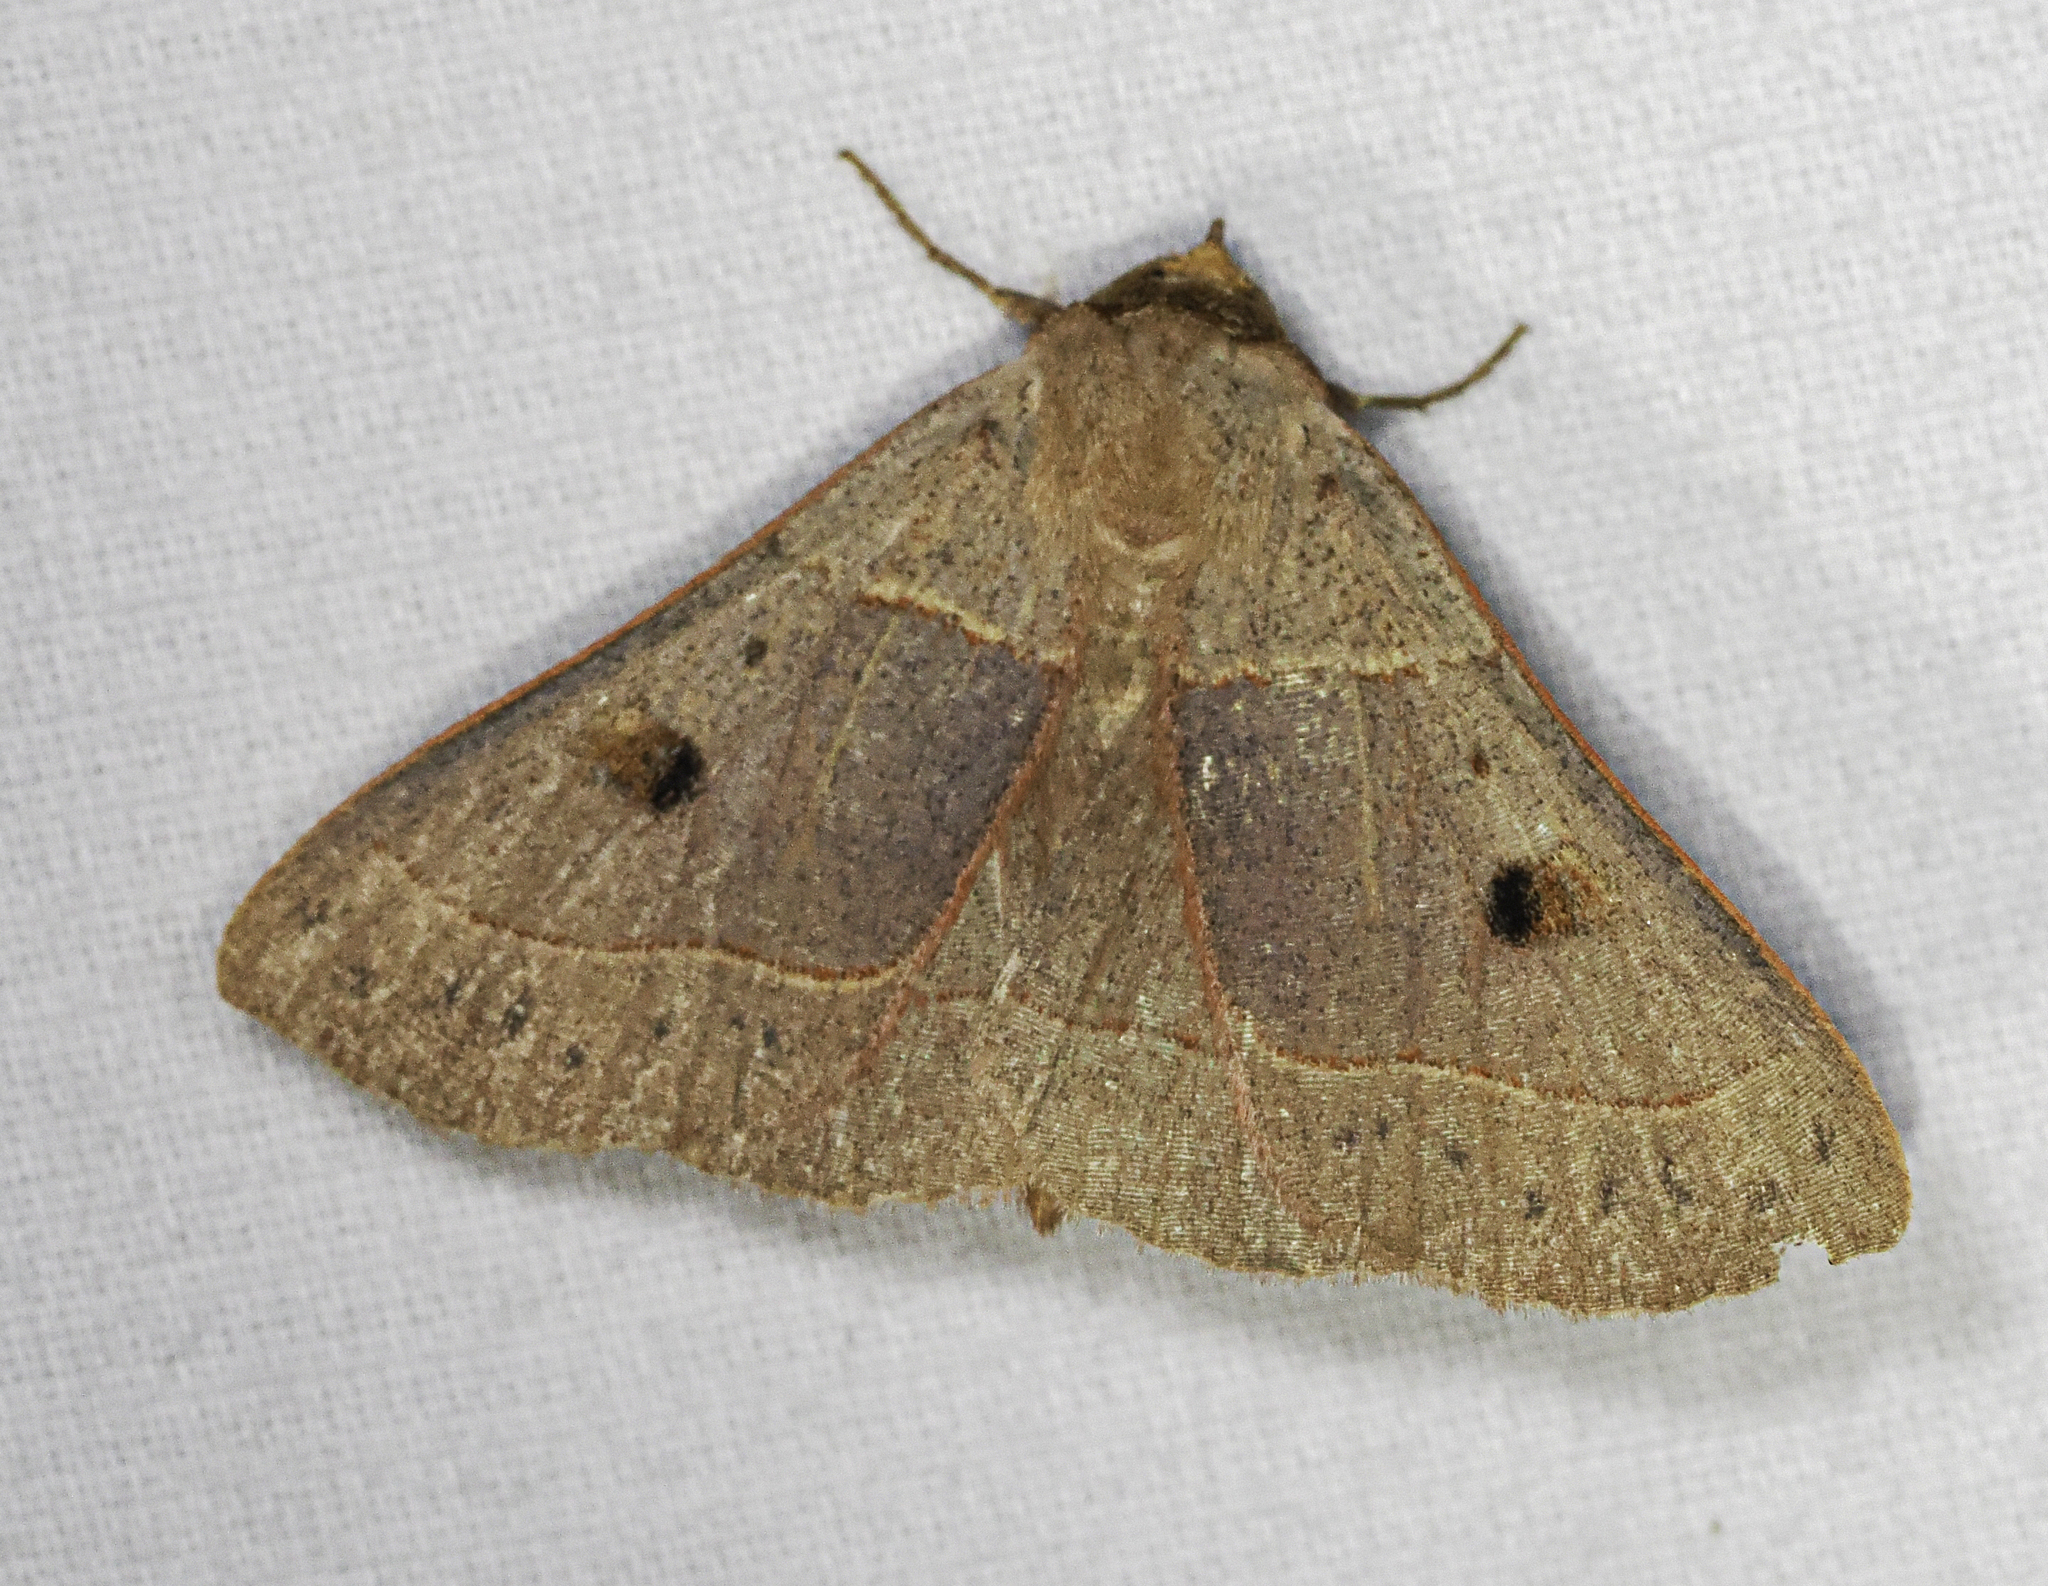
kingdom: Animalia
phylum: Arthropoda
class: Insecta
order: Lepidoptera
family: Erebidae
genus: Panopoda
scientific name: Panopoda rufimargo
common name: Red-lined panopoda moth
